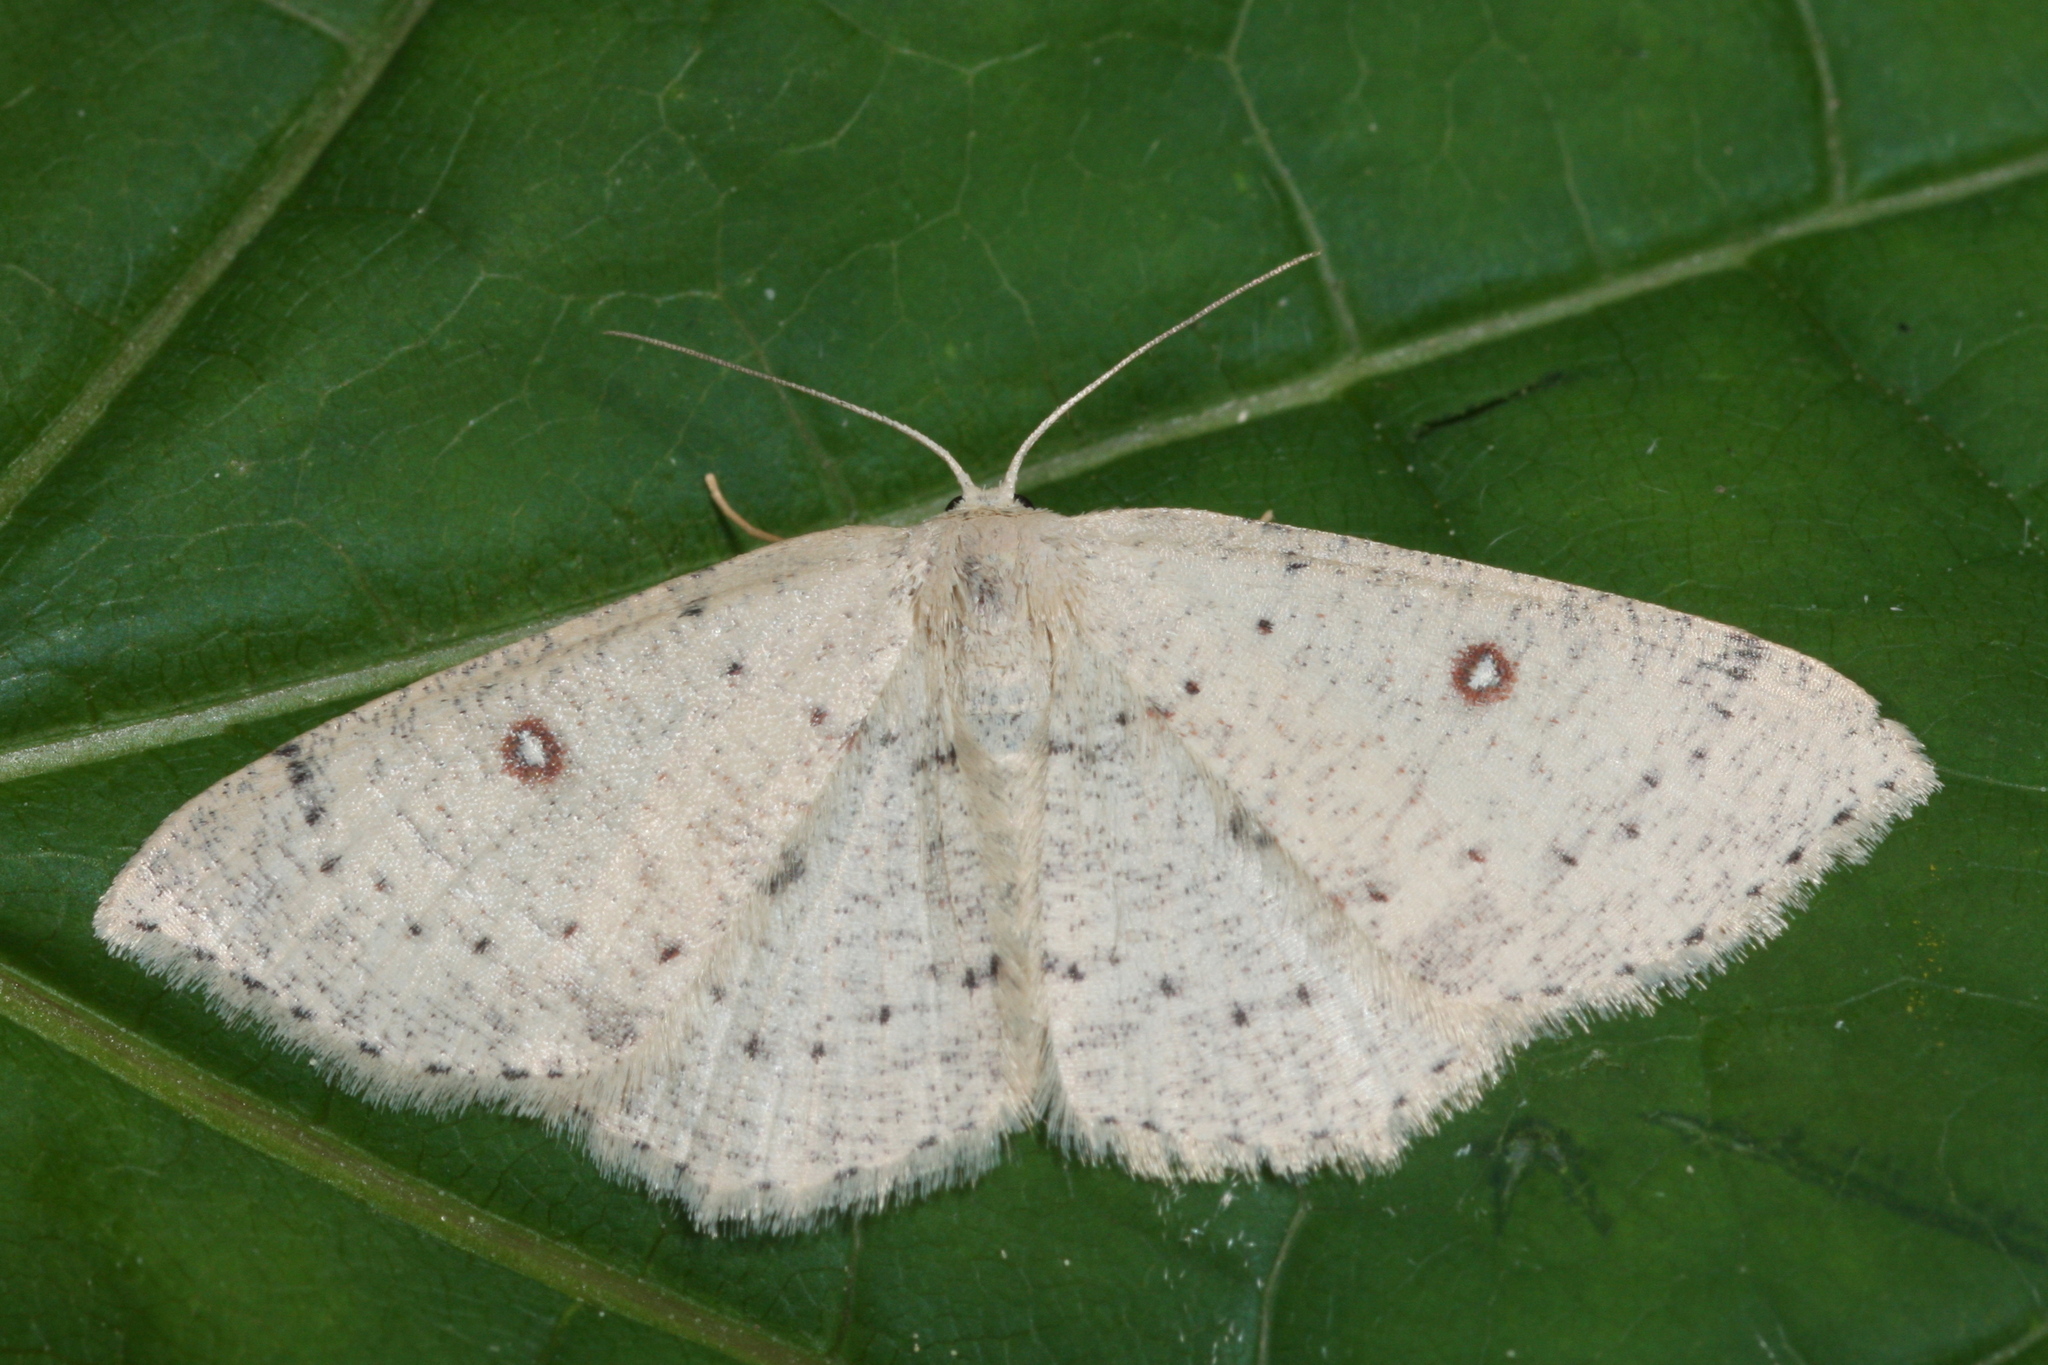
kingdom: Animalia
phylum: Arthropoda
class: Insecta
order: Lepidoptera
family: Geometridae
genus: Cyclophora
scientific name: Cyclophora albipunctata
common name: Birch mocha
